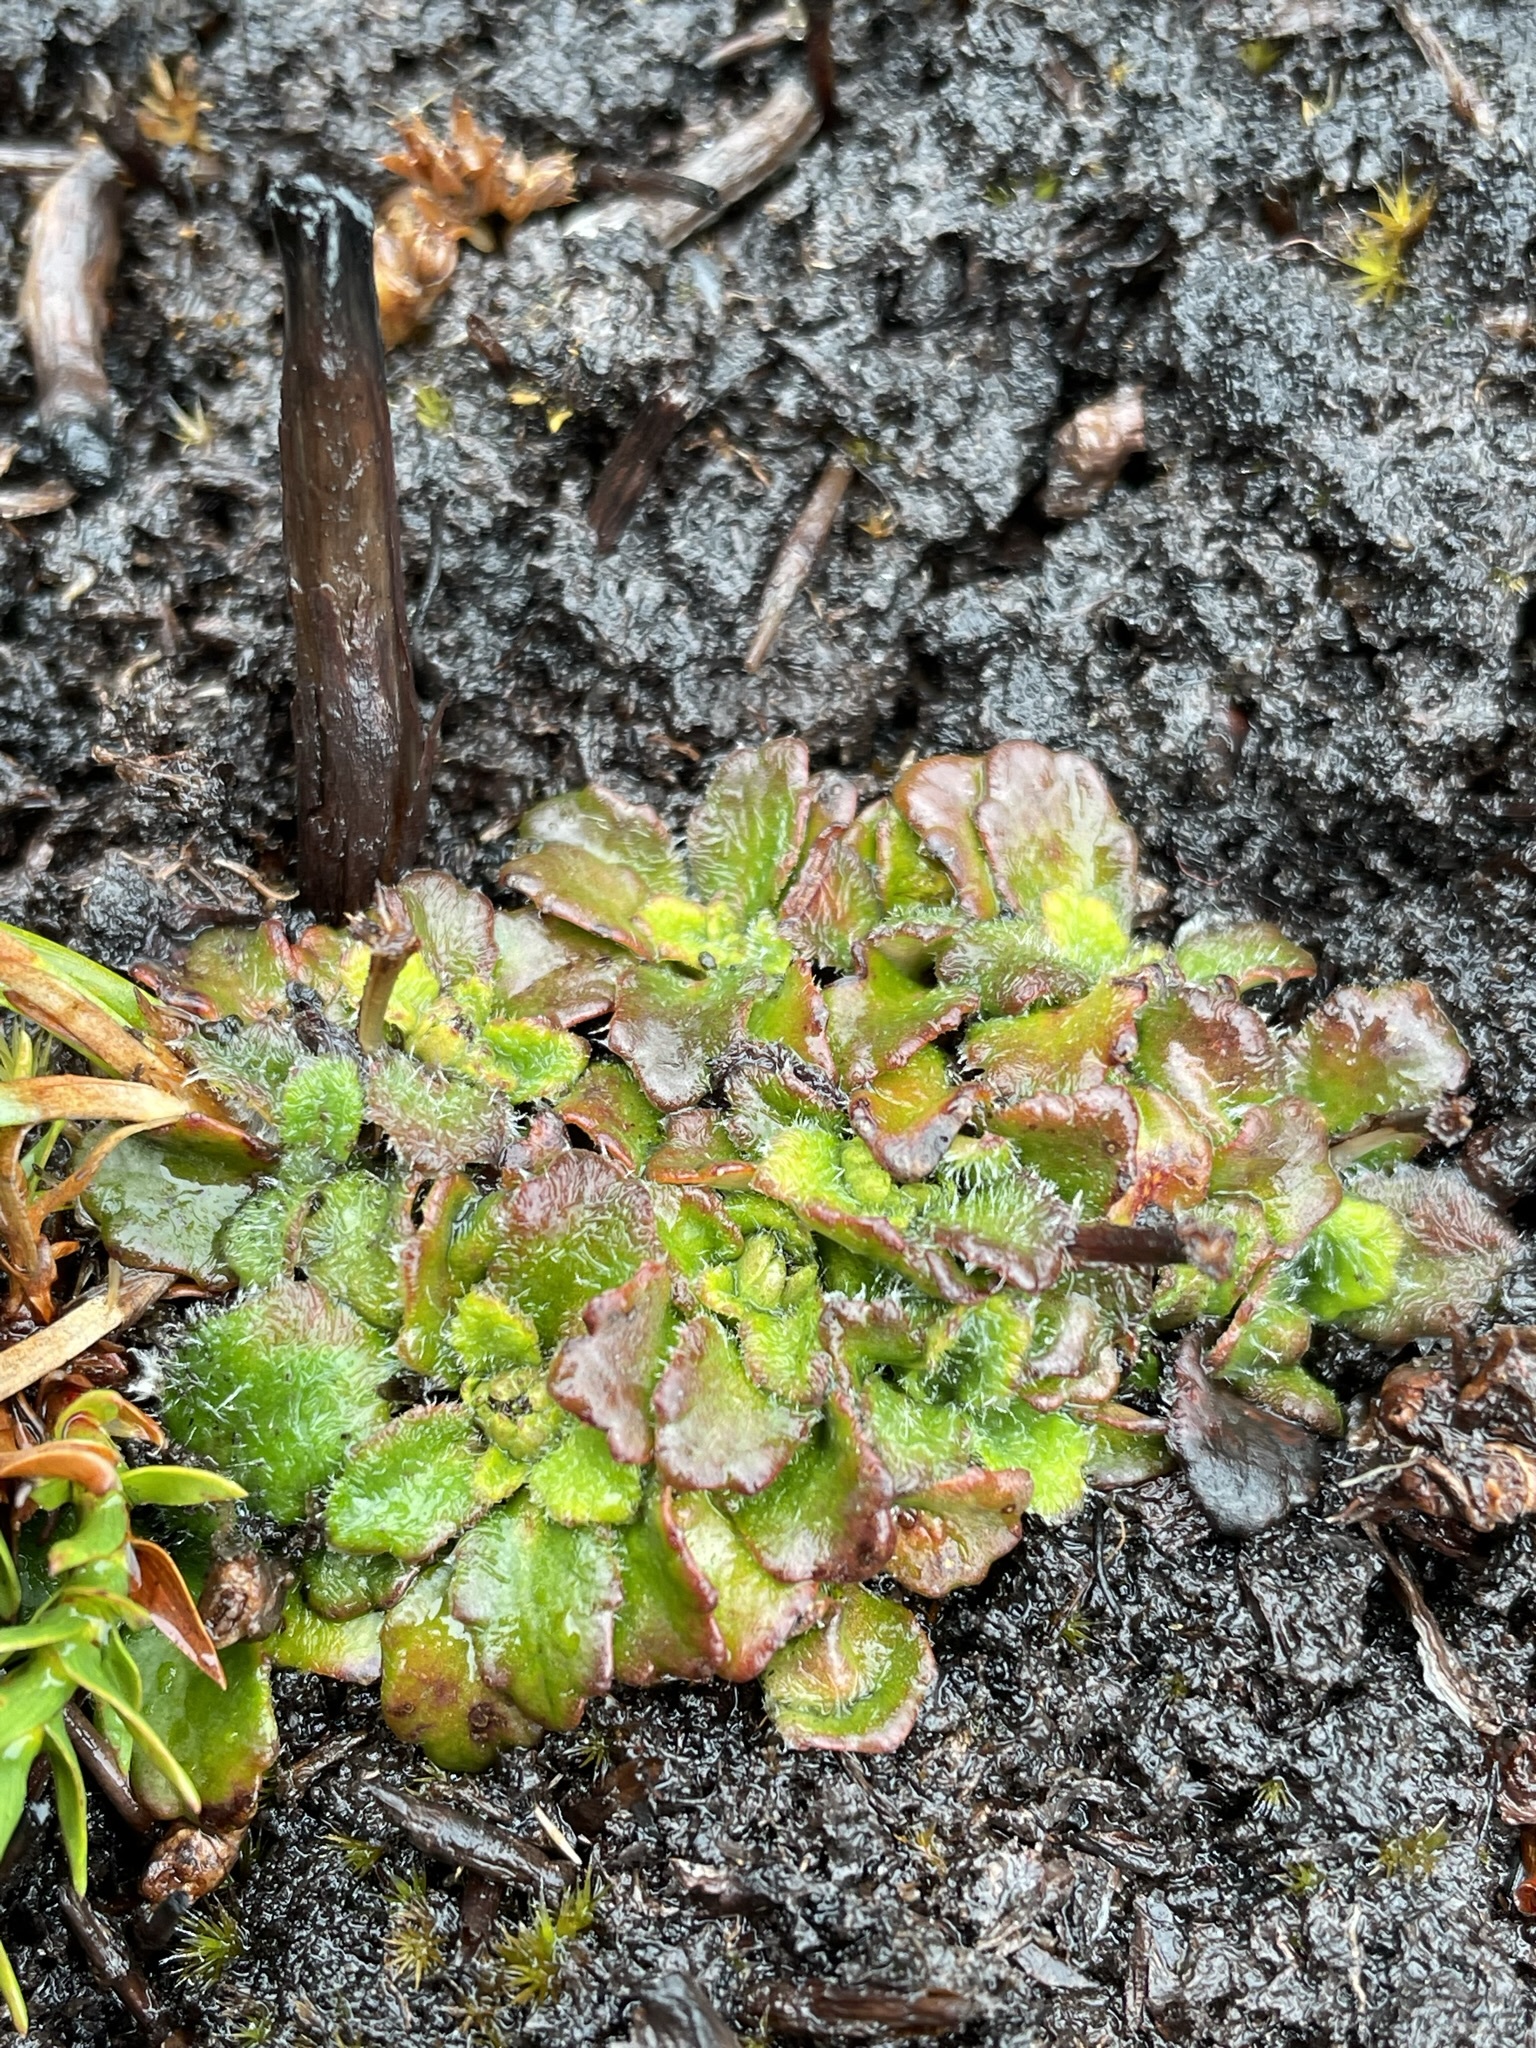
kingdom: Plantae
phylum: Tracheophyta
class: Magnoliopsida
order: Apiales
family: Apiaceae
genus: Actinotus
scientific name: Actinotus bellidioides
